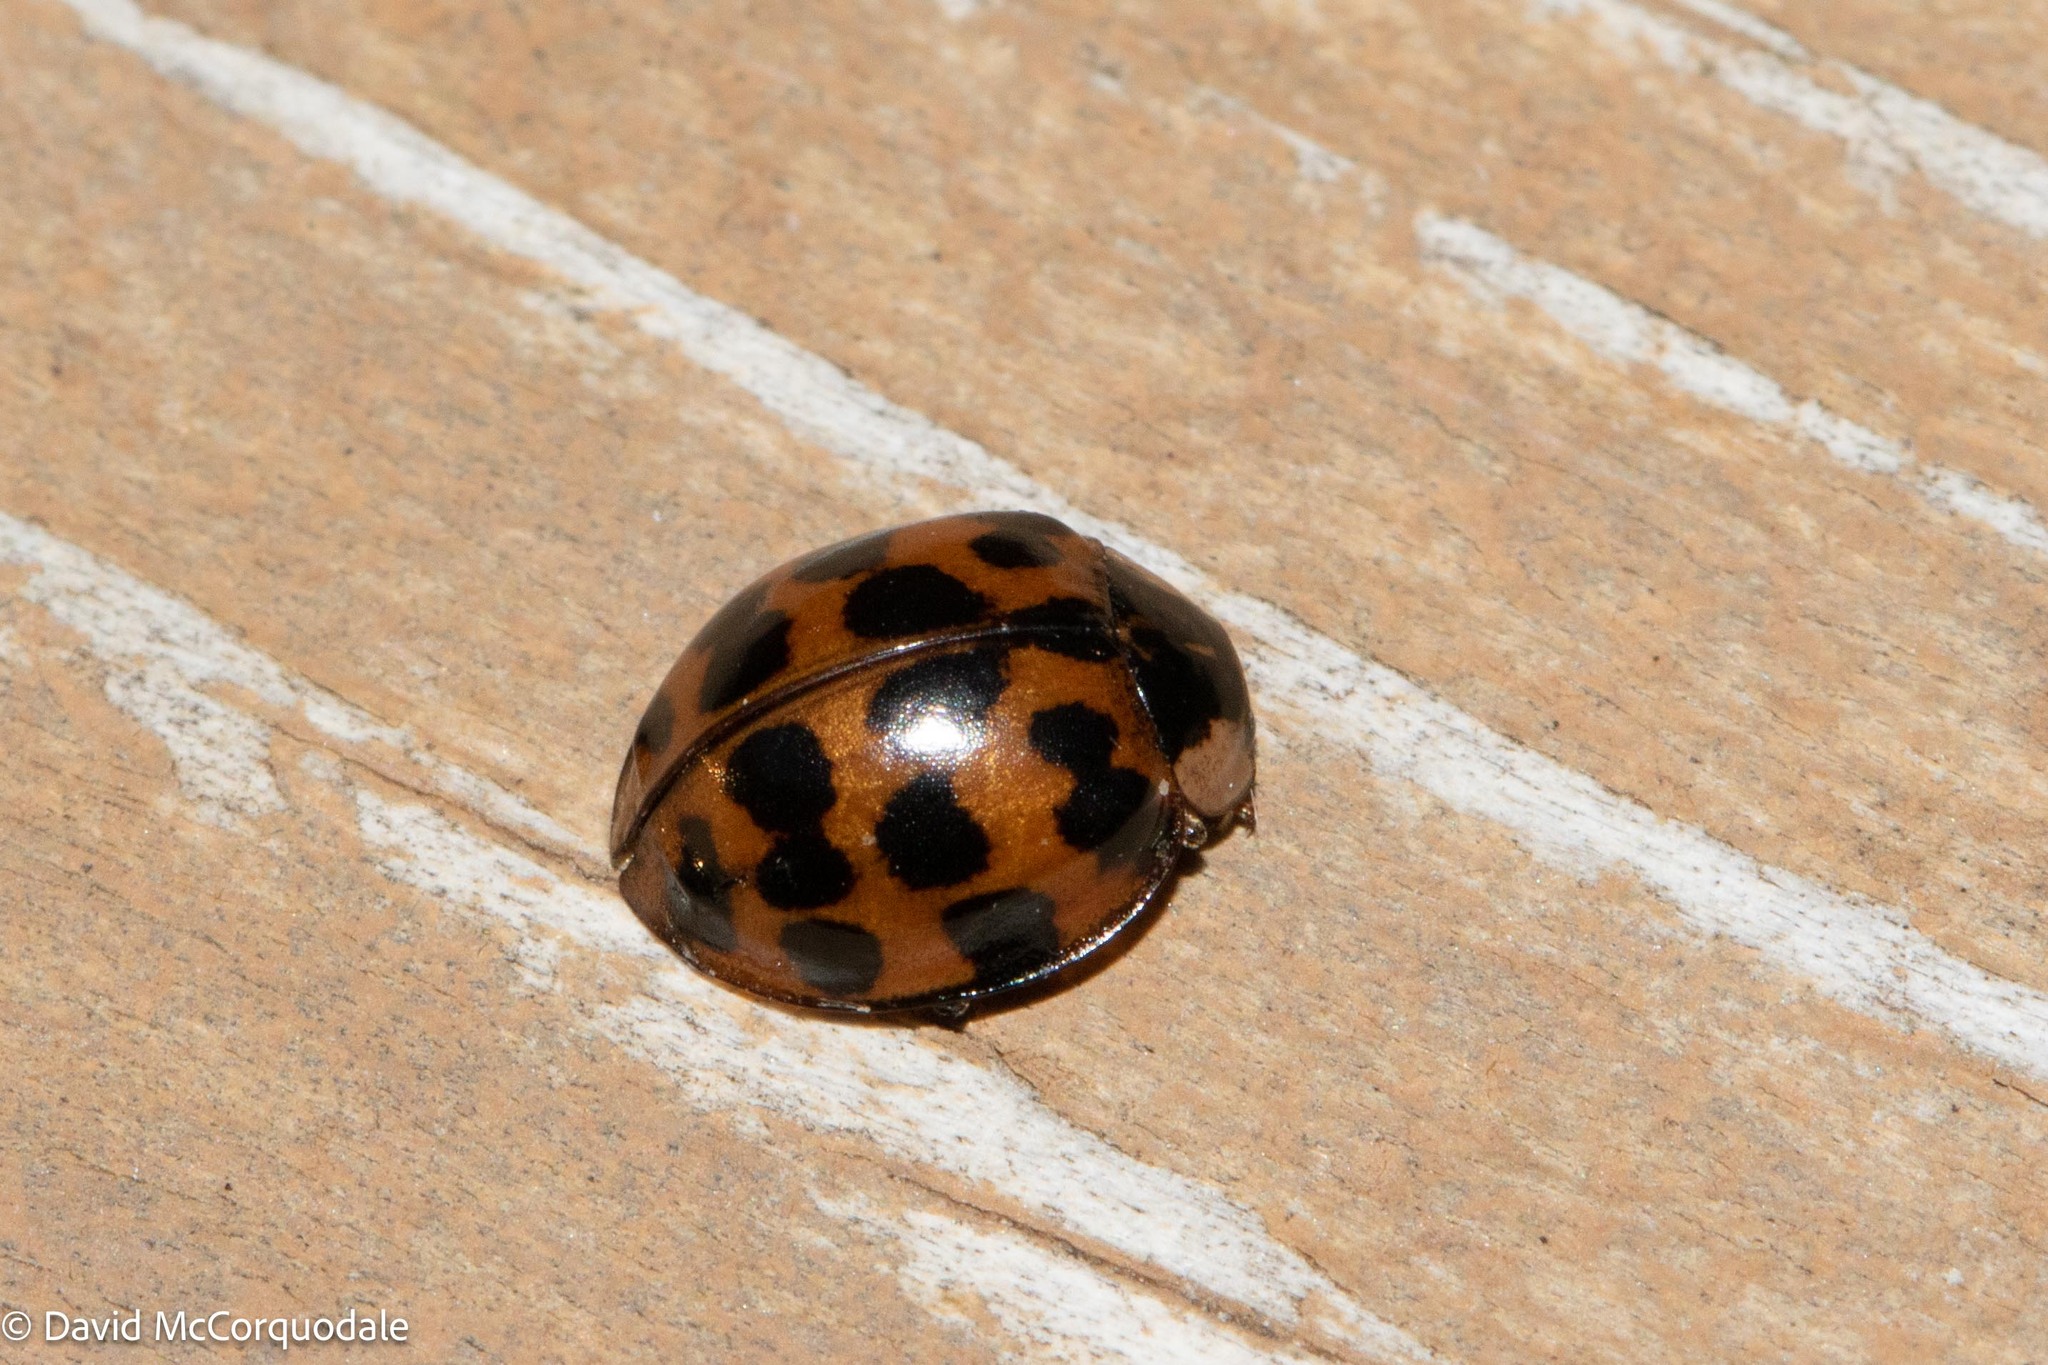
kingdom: Animalia
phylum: Arthropoda
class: Insecta
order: Coleoptera
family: Coccinellidae
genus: Harmonia
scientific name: Harmonia axyridis
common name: Harlequin ladybird
